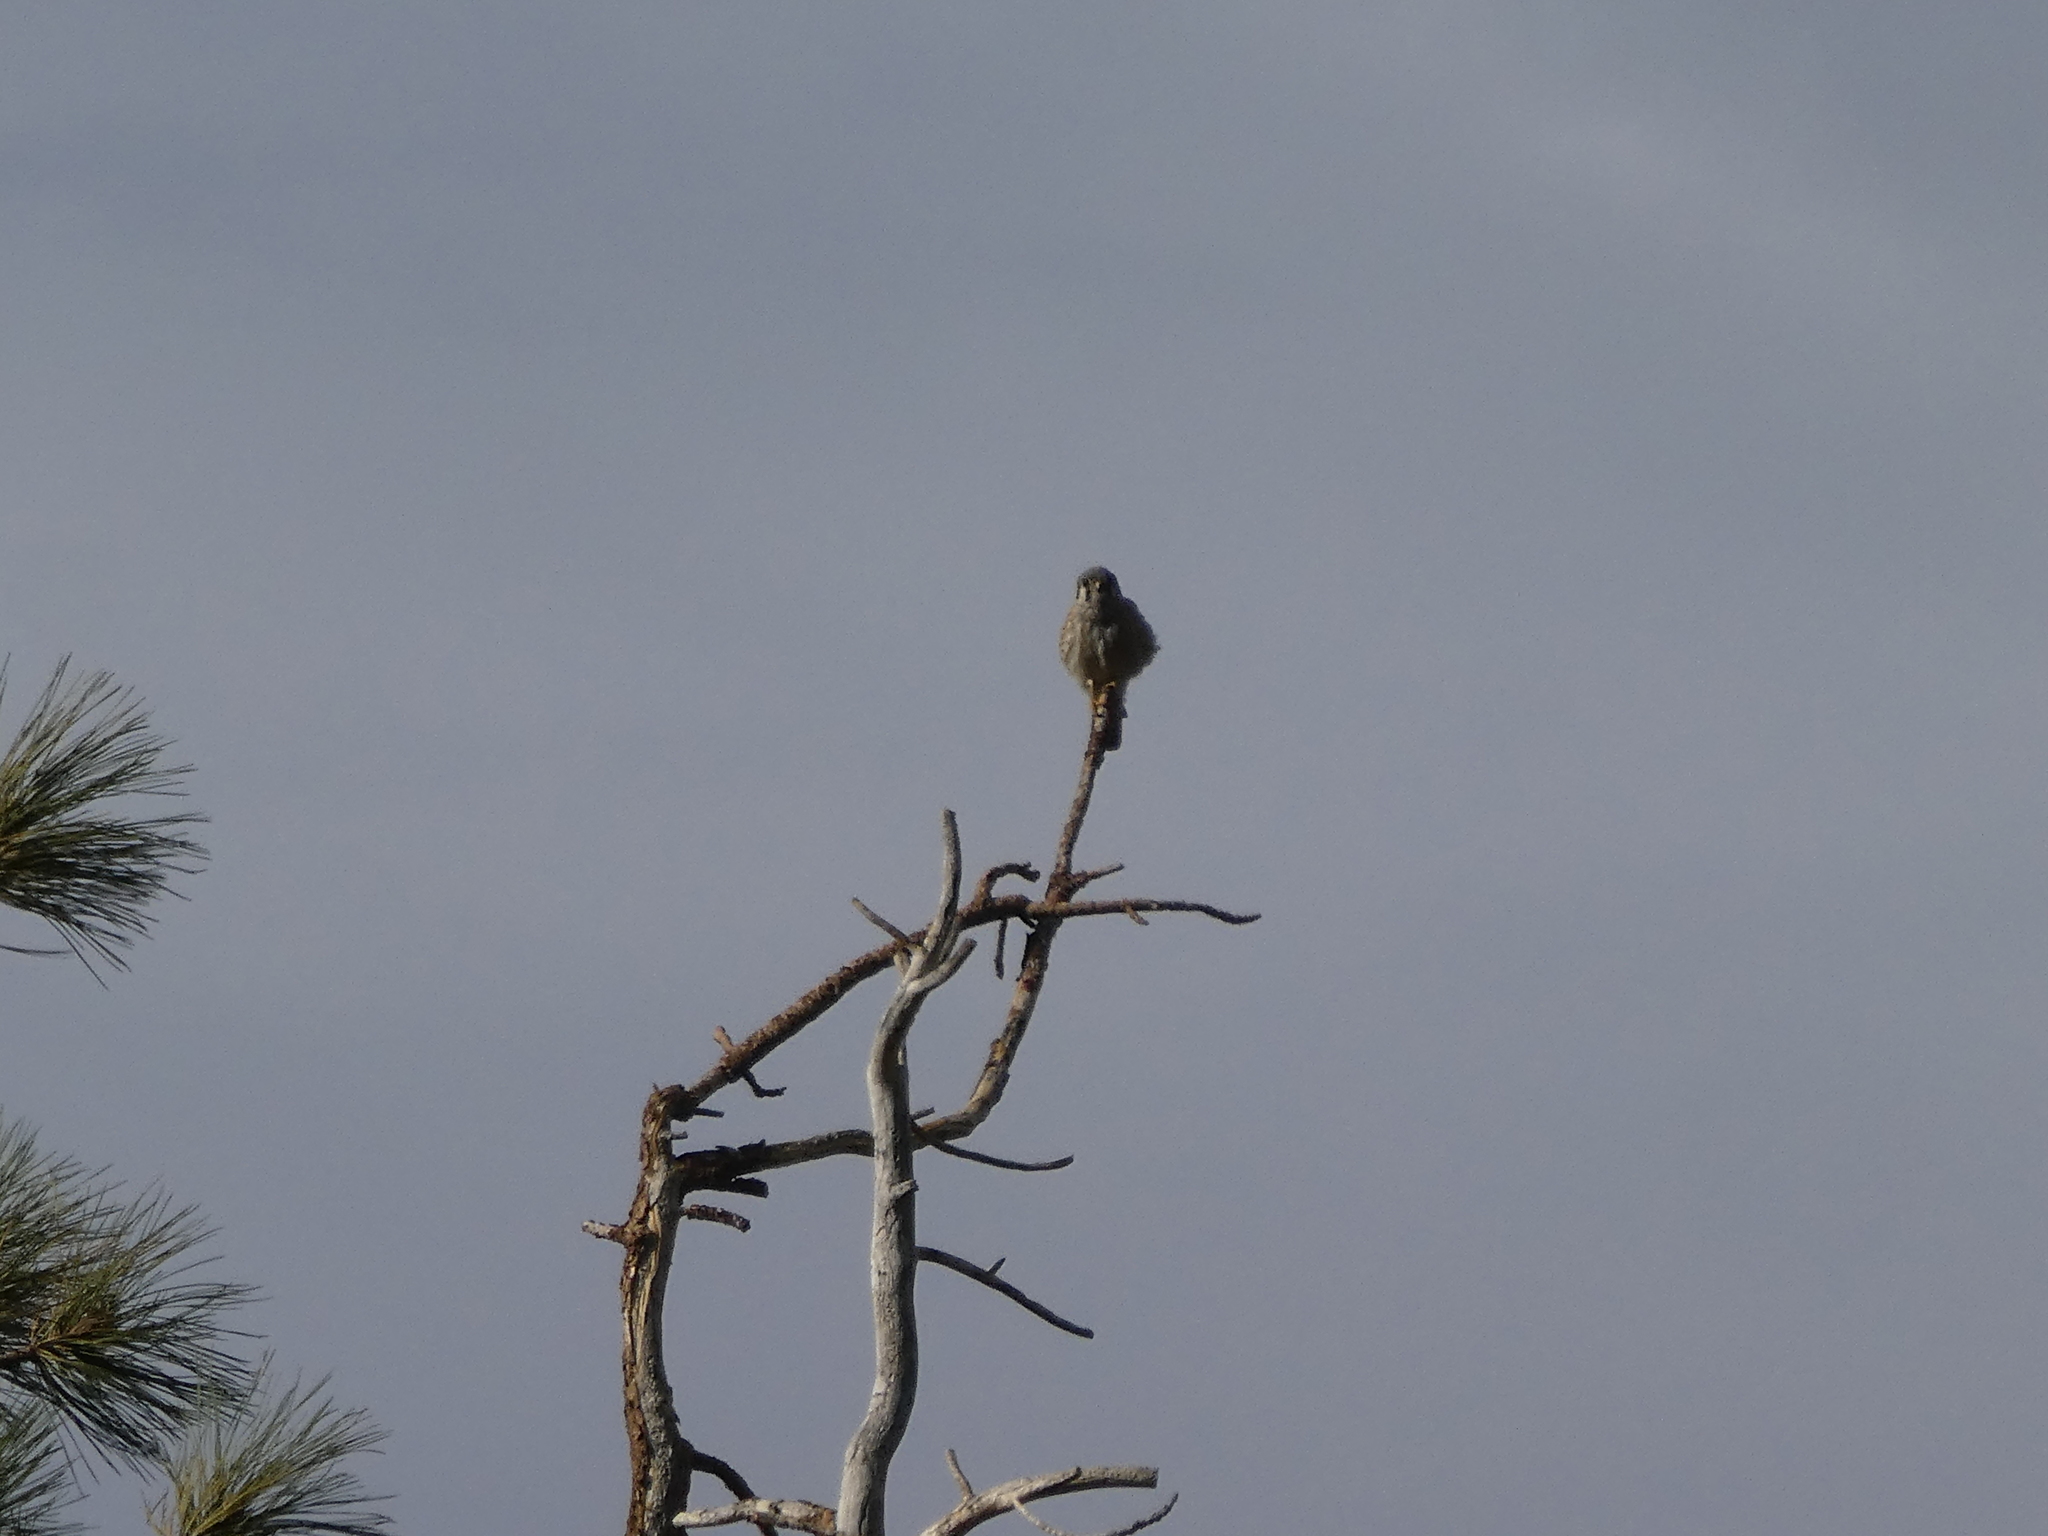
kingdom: Animalia
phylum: Chordata
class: Aves
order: Falconiformes
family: Falconidae
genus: Falco
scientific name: Falco sparverius
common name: American kestrel
